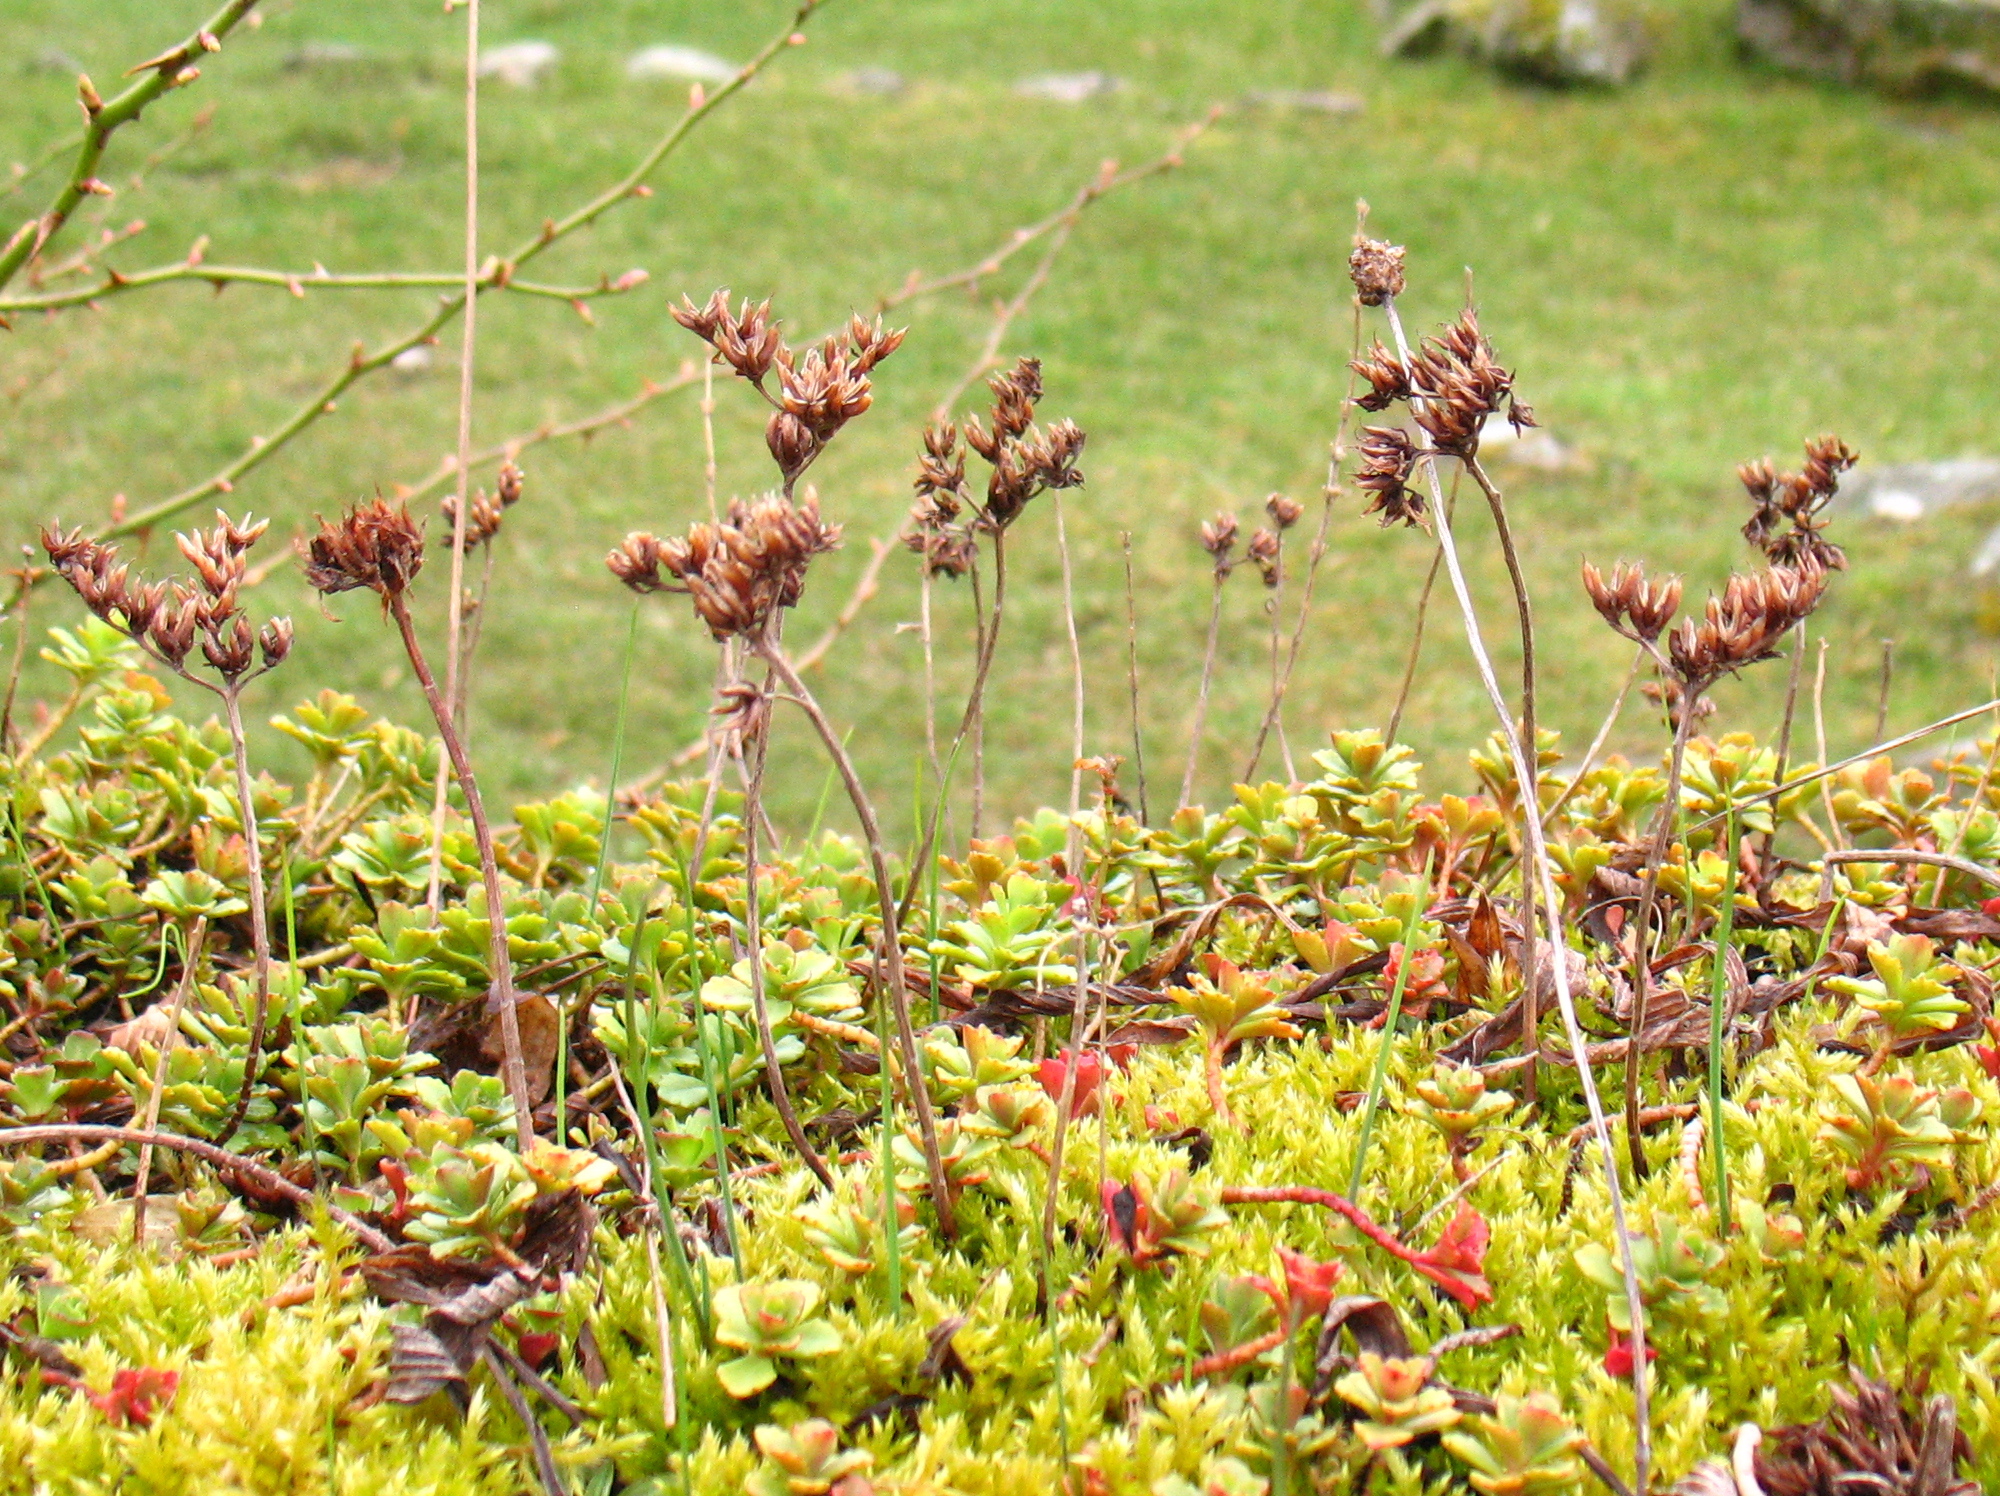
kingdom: Plantae
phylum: Tracheophyta
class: Magnoliopsida
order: Saxifragales
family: Crassulaceae
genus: Phedimus
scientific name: Phedimus spurius
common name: Caucasian stonecrop
